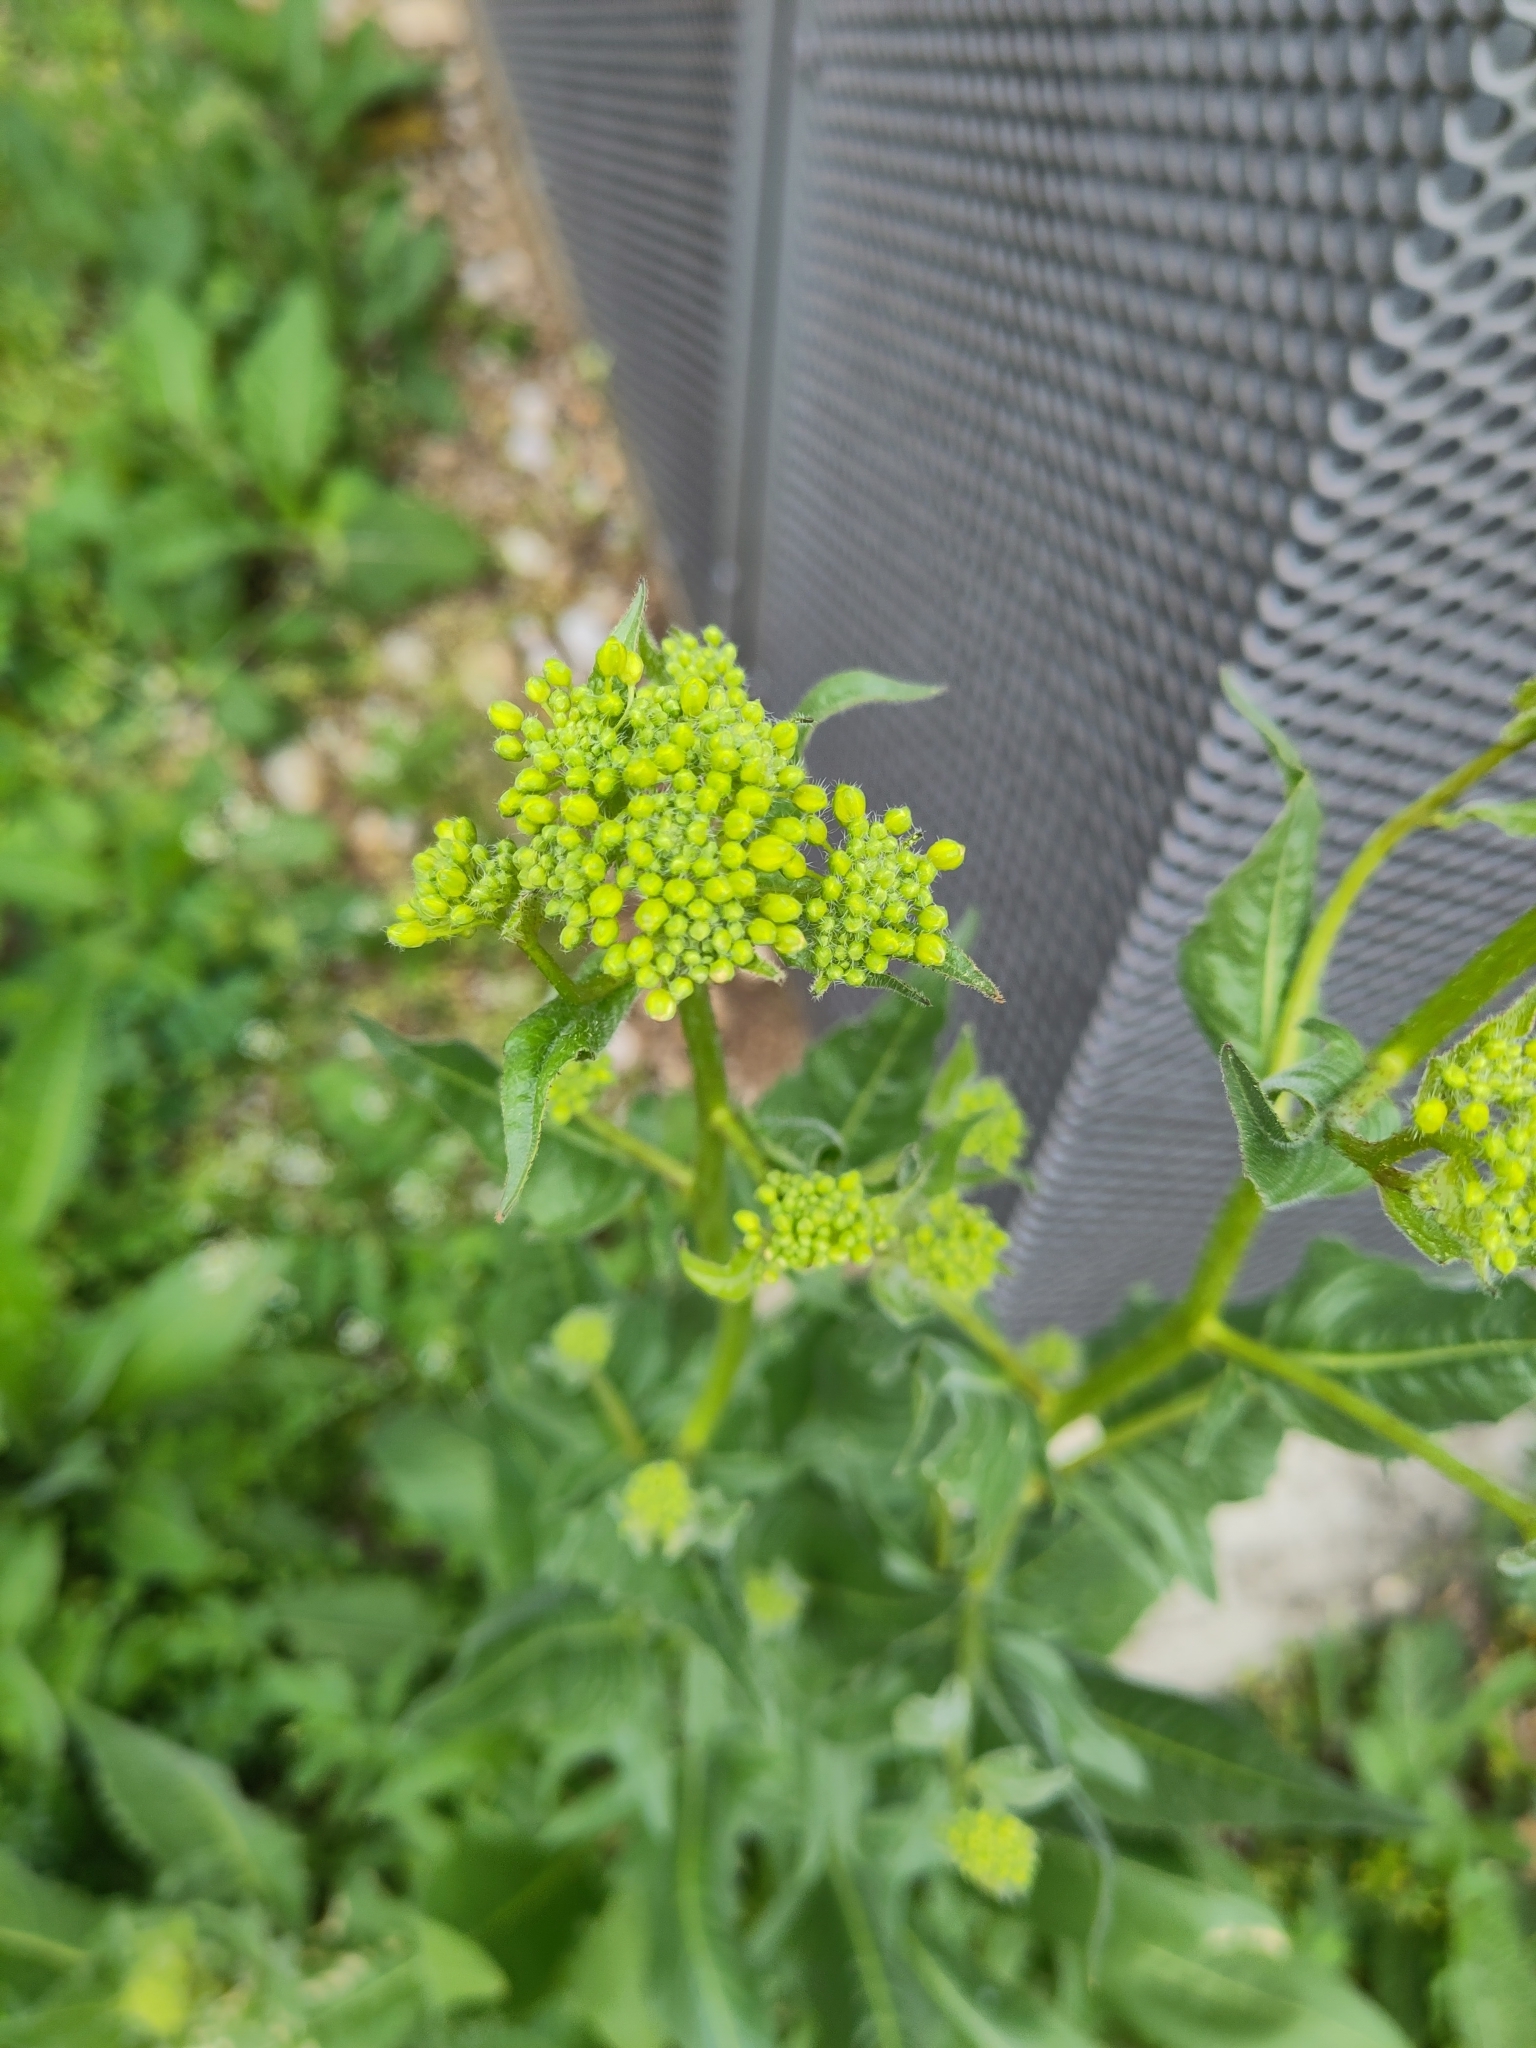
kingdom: Plantae
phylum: Tracheophyta
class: Magnoliopsida
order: Brassicales
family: Brassicaceae
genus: Bunias
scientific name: Bunias orientalis
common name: Warty-cabbage
